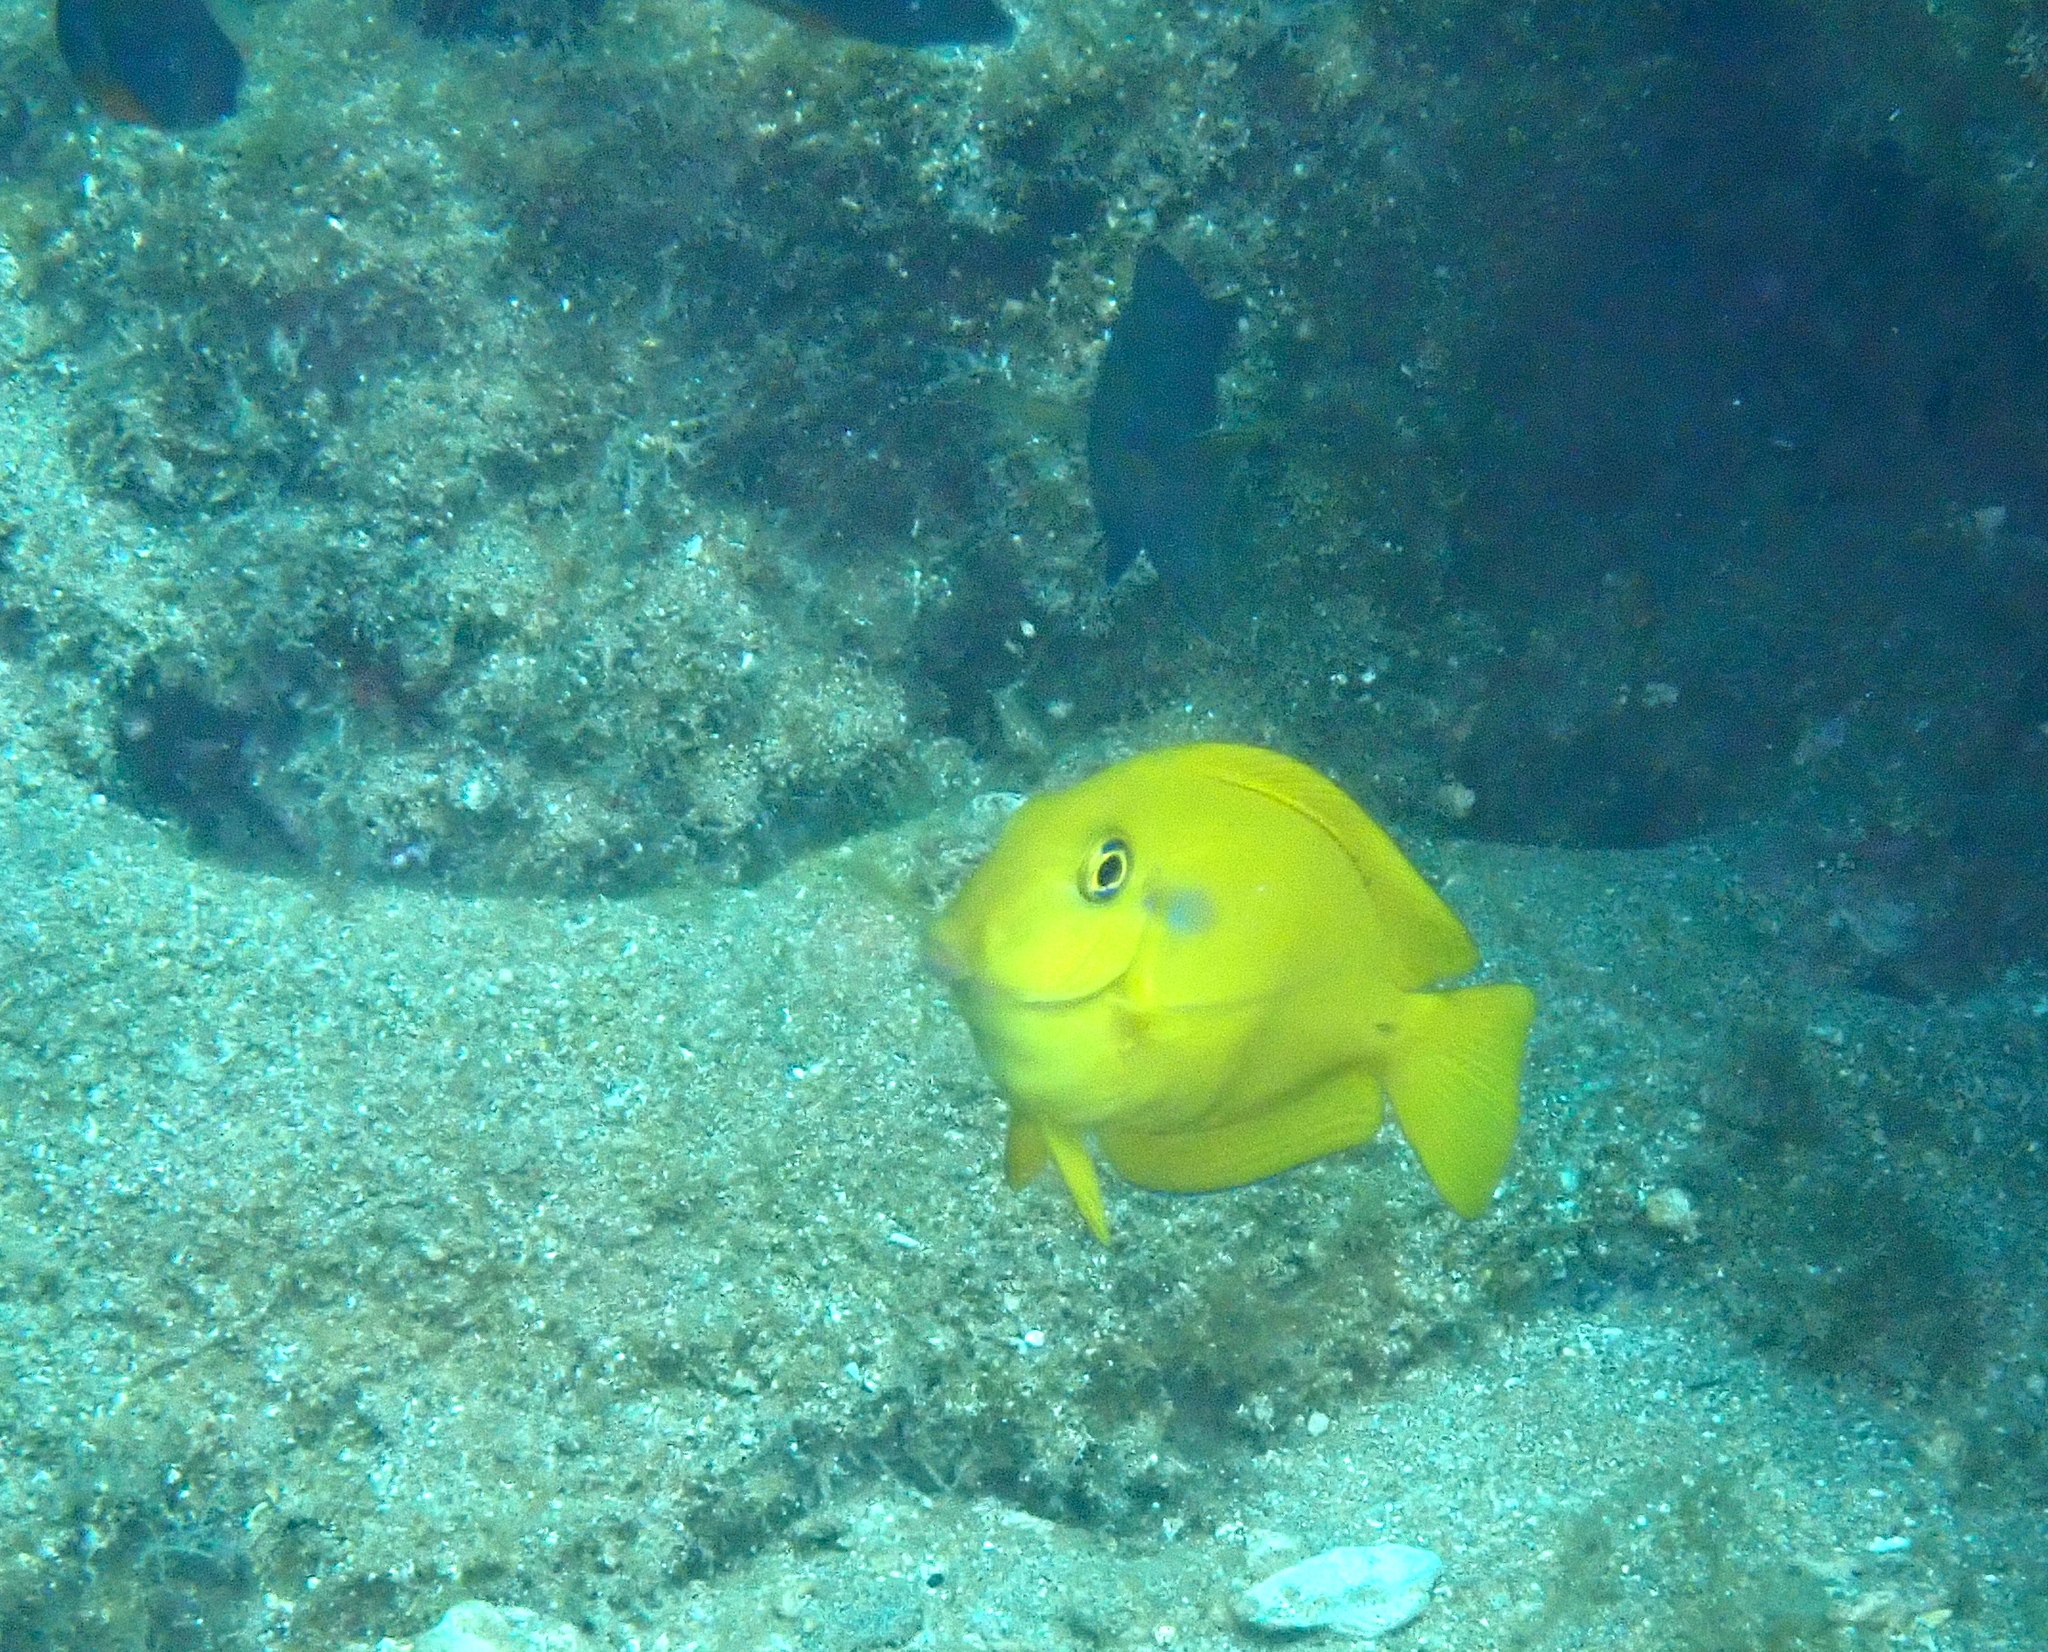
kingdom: Animalia
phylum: Chordata
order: Perciformes
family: Acanthuridae
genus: Acanthurus
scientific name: Acanthurus olivaceus
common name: Gendarme fish
